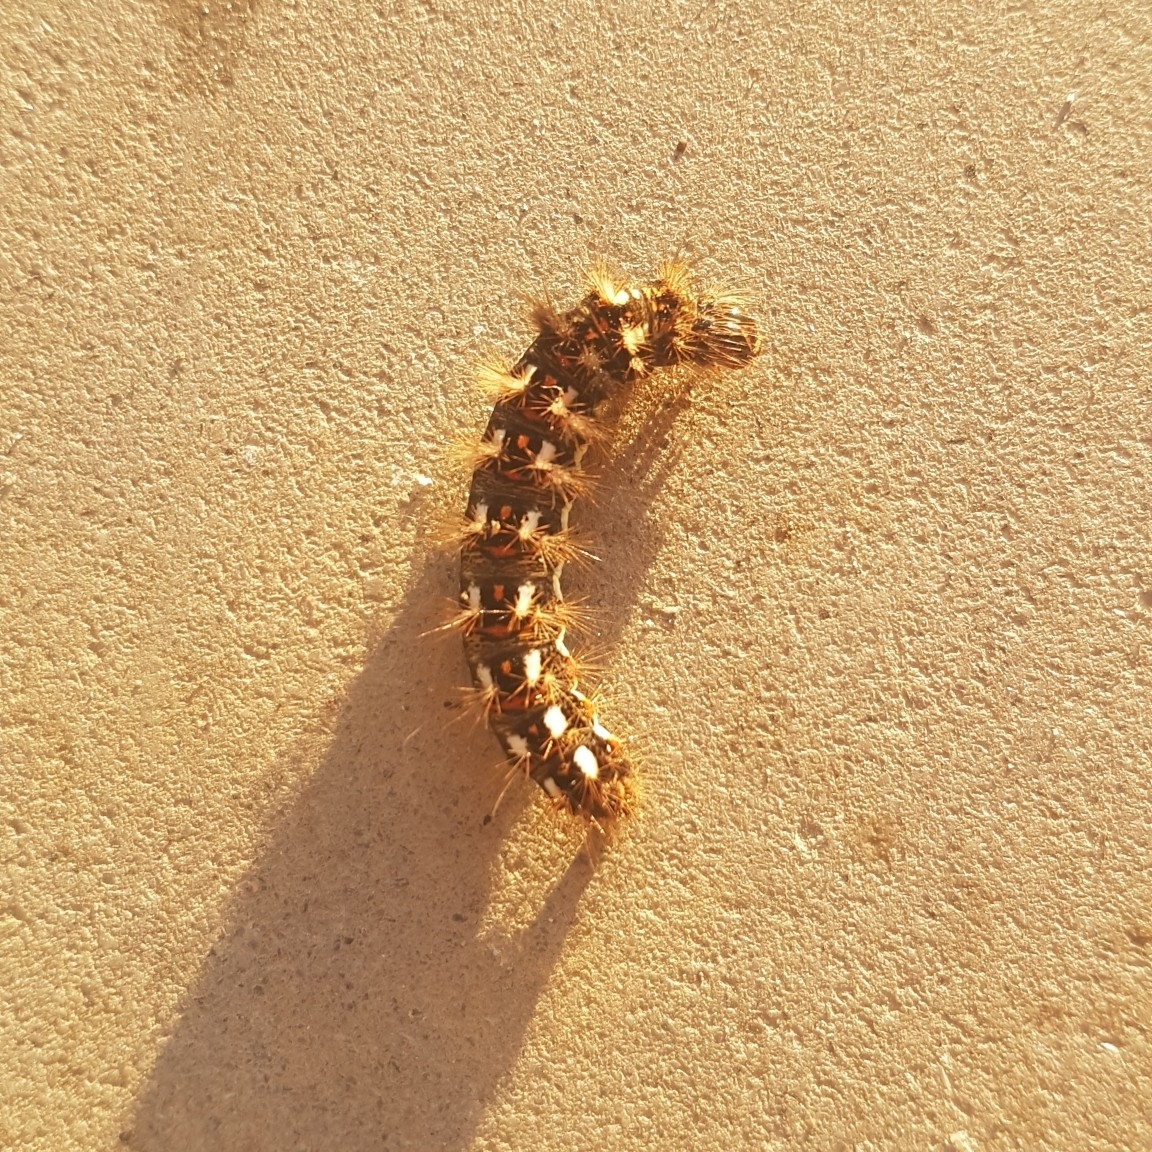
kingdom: Animalia
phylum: Arthropoda
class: Insecta
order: Lepidoptera
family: Noctuidae
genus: Acronicta
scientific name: Acronicta rumicis
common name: Knot grass
